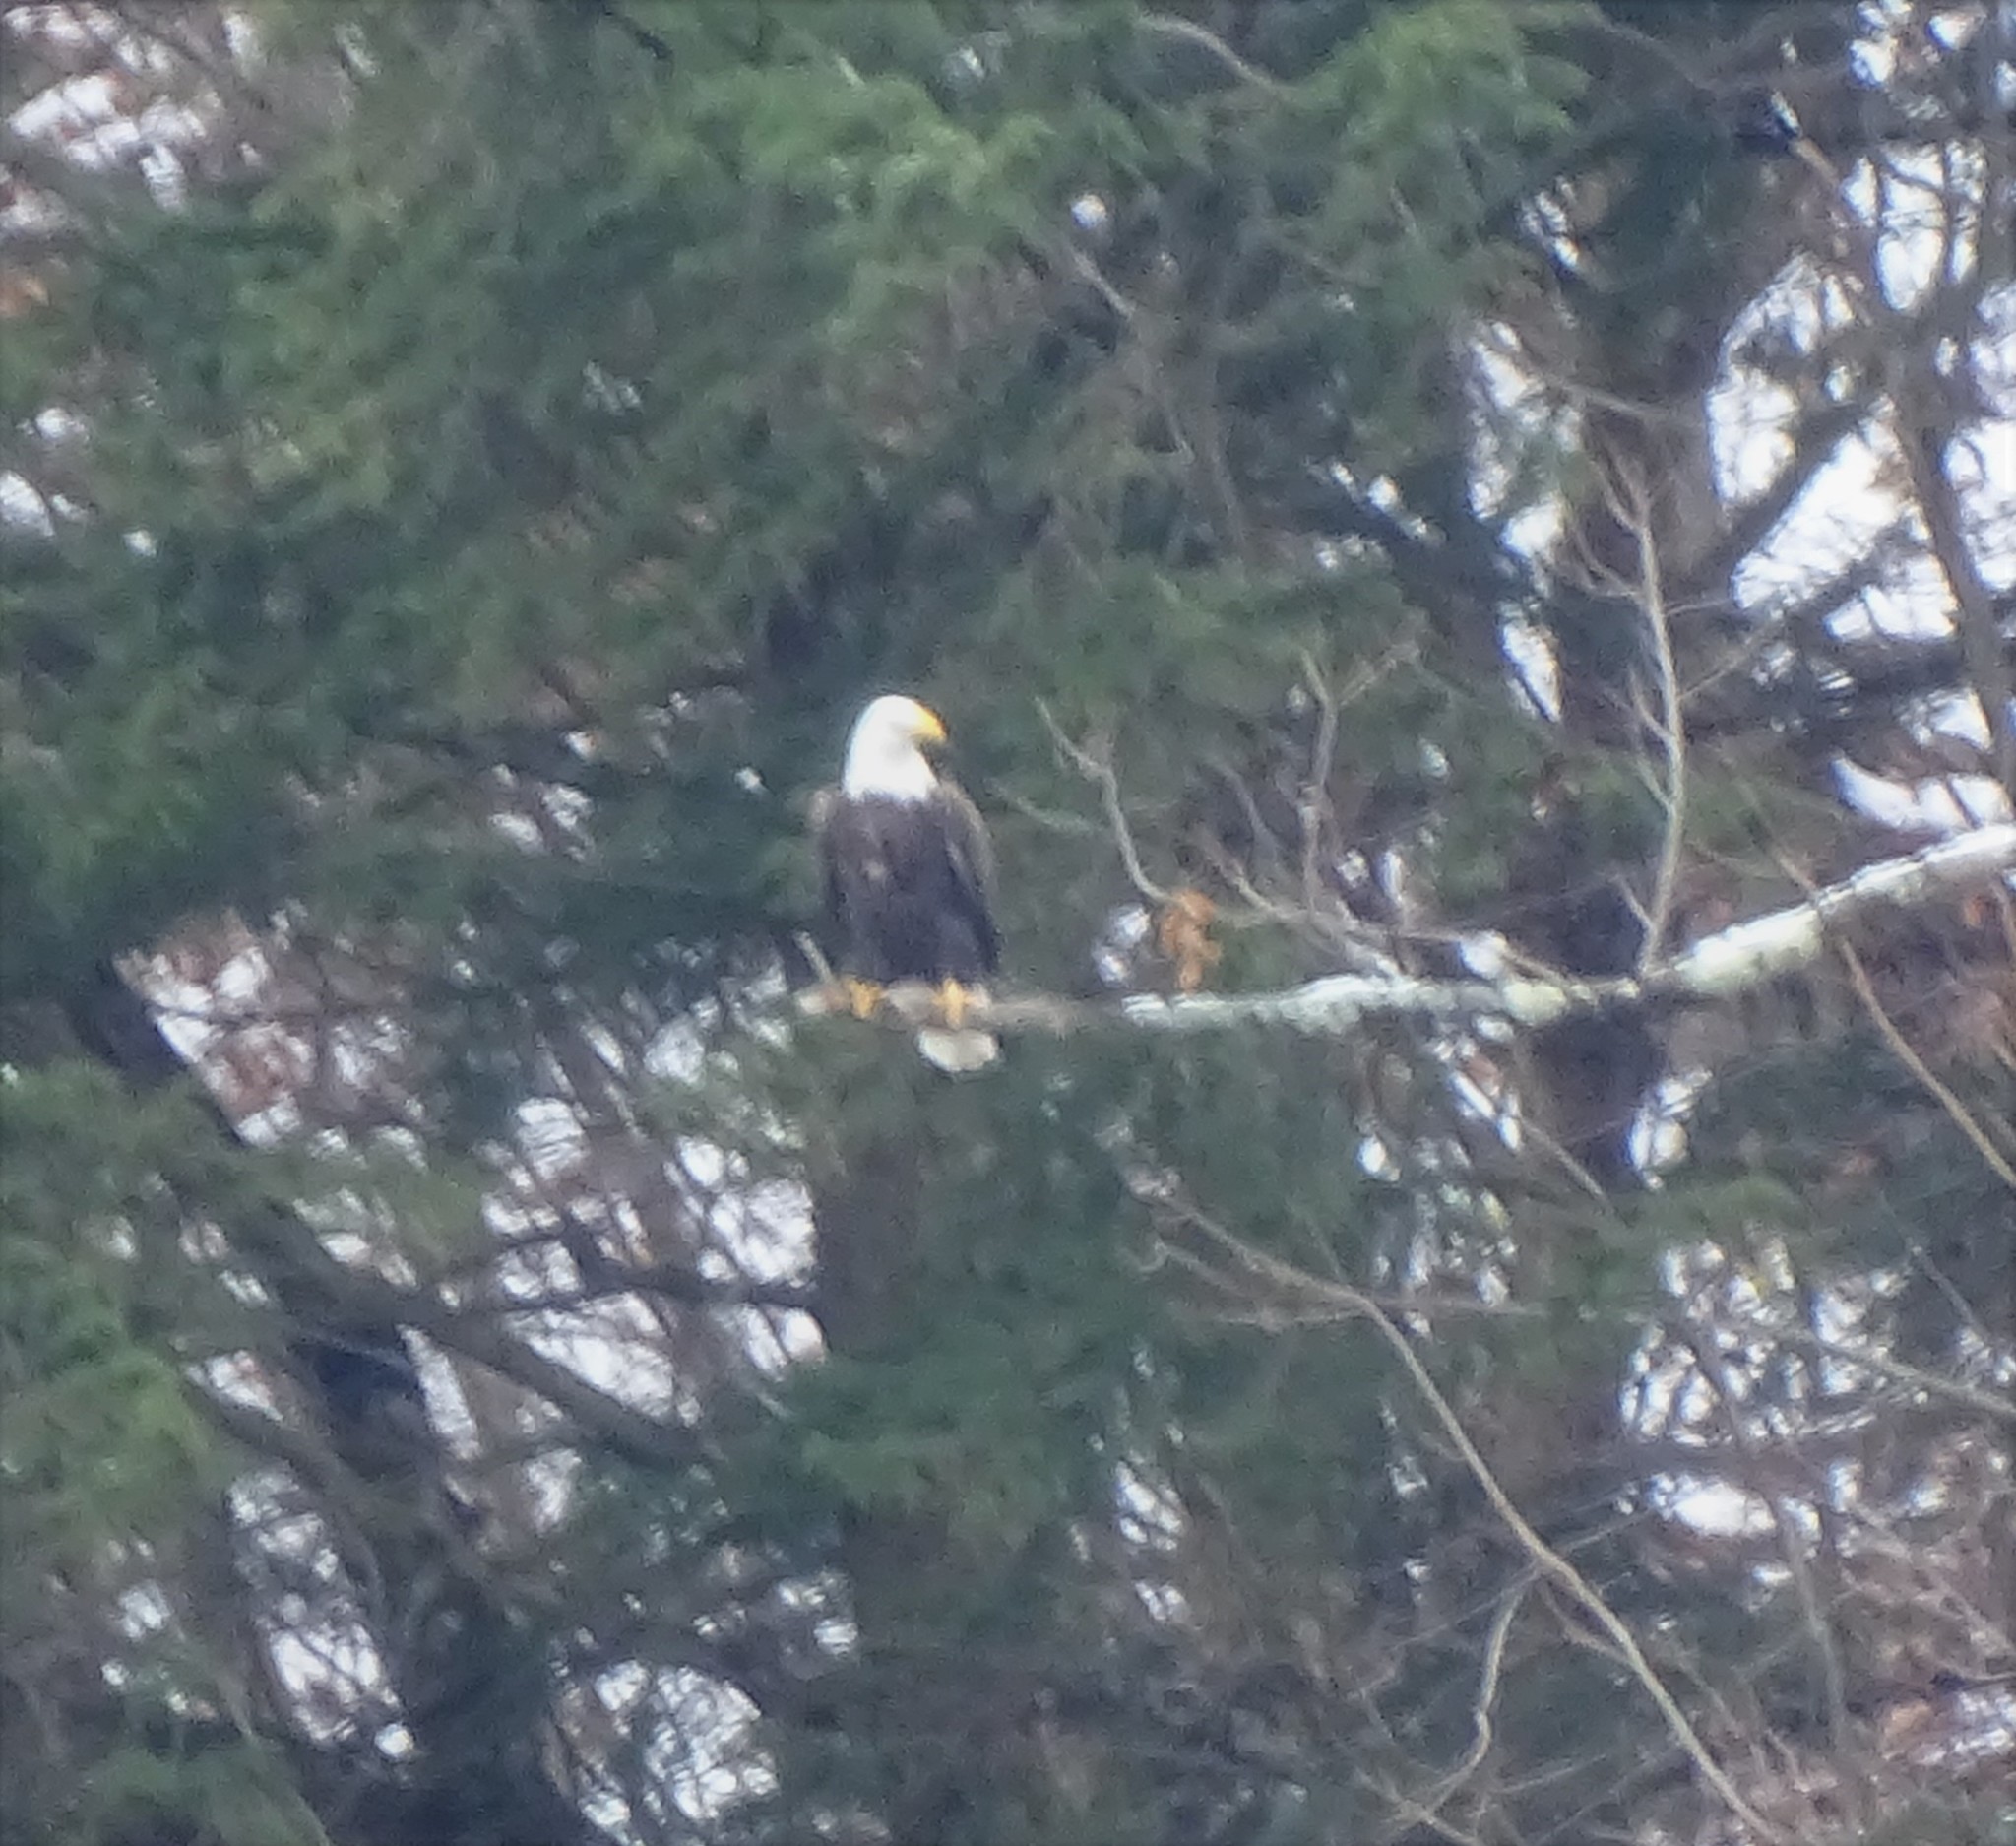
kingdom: Animalia
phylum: Chordata
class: Aves
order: Accipitriformes
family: Accipitridae
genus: Haliaeetus
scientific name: Haliaeetus leucocephalus
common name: Bald eagle
